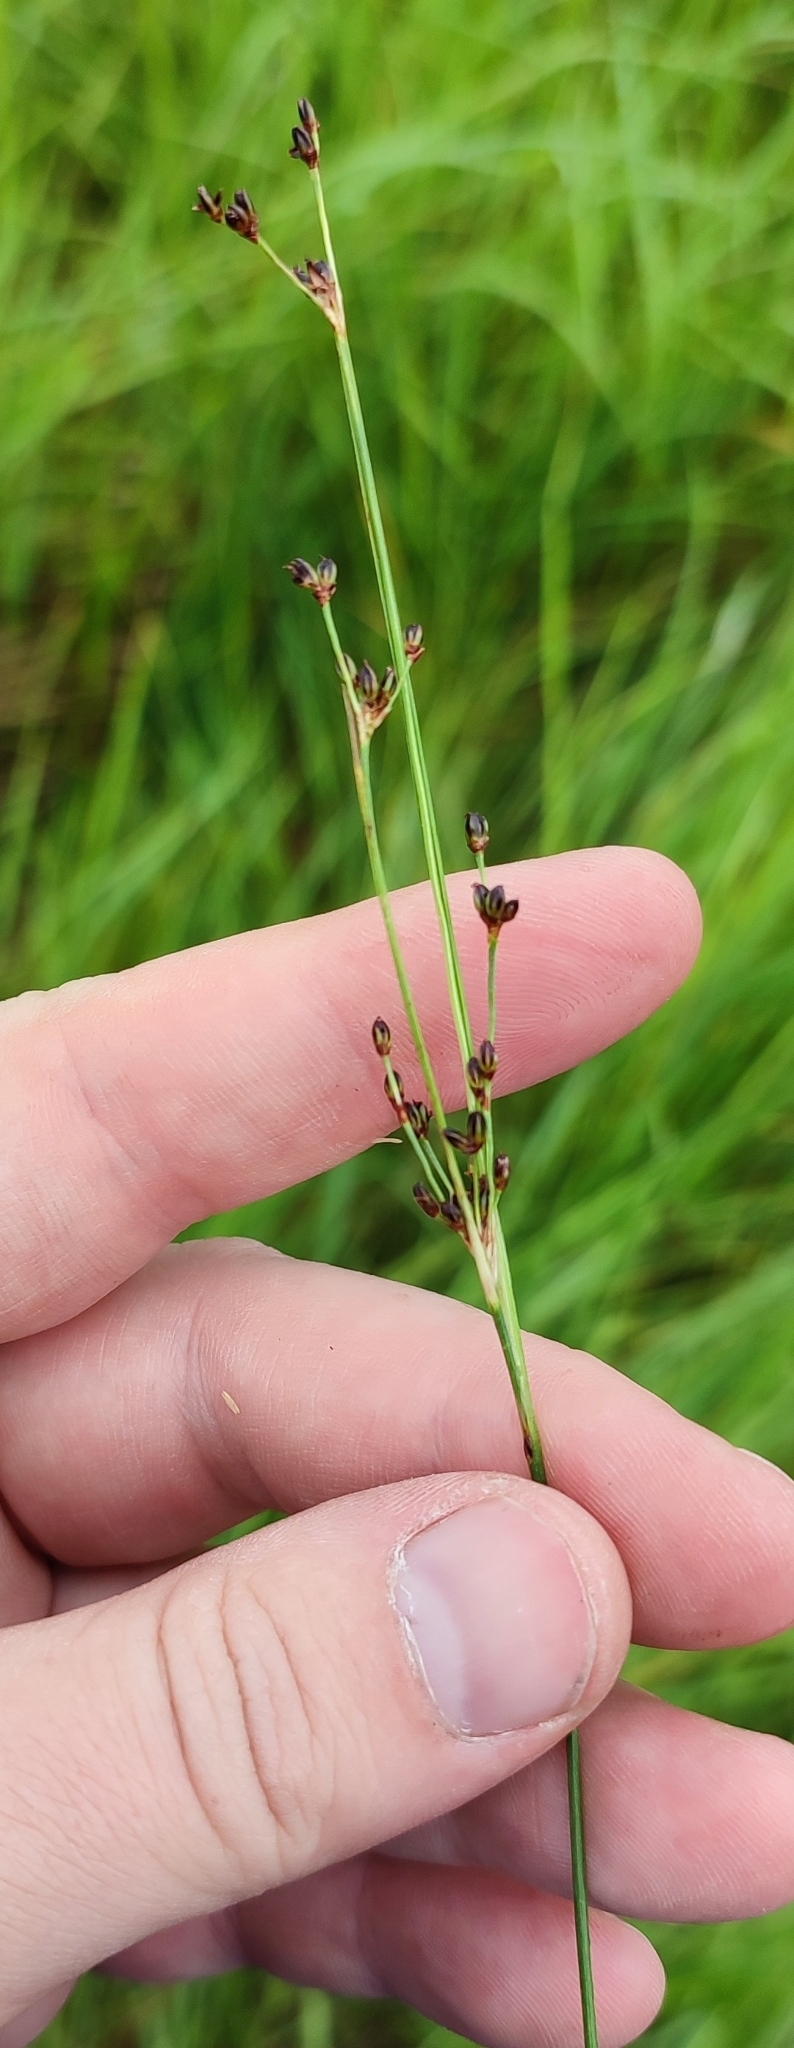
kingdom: Plantae
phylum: Tracheophyta
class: Liliopsida
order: Poales
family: Juncaceae
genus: Juncus
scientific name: Juncus gerardi
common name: Saltmarsh rush
